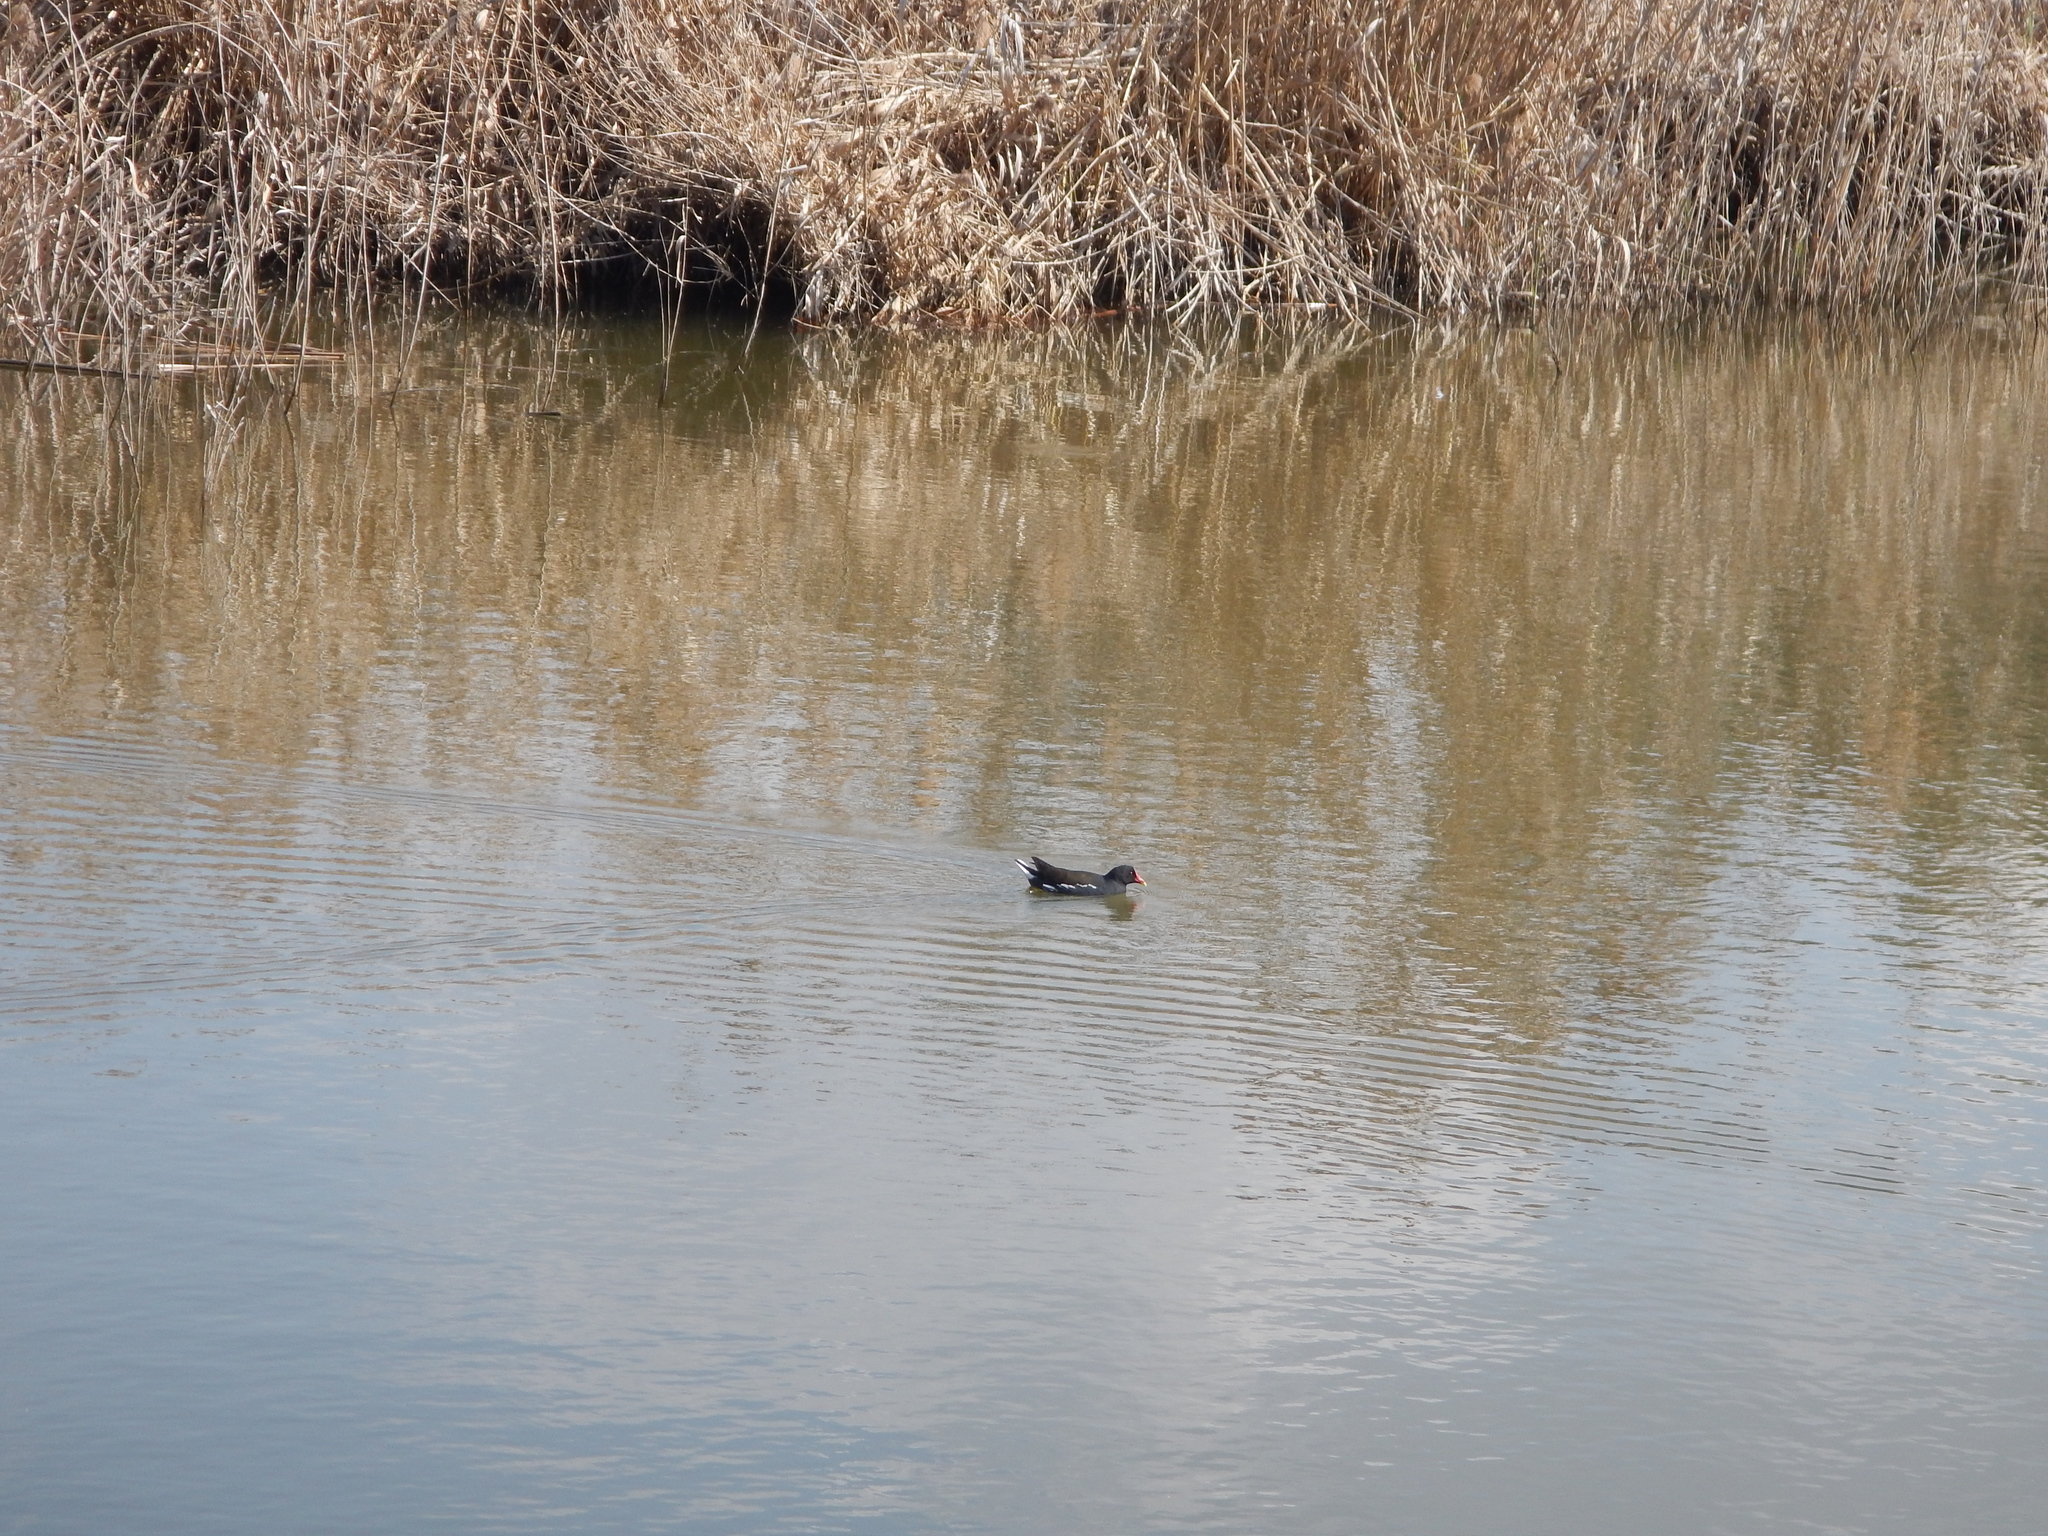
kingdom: Animalia
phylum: Chordata
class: Aves
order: Gruiformes
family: Rallidae
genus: Gallinula
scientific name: Gallinula chloropus
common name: Common moorhen
